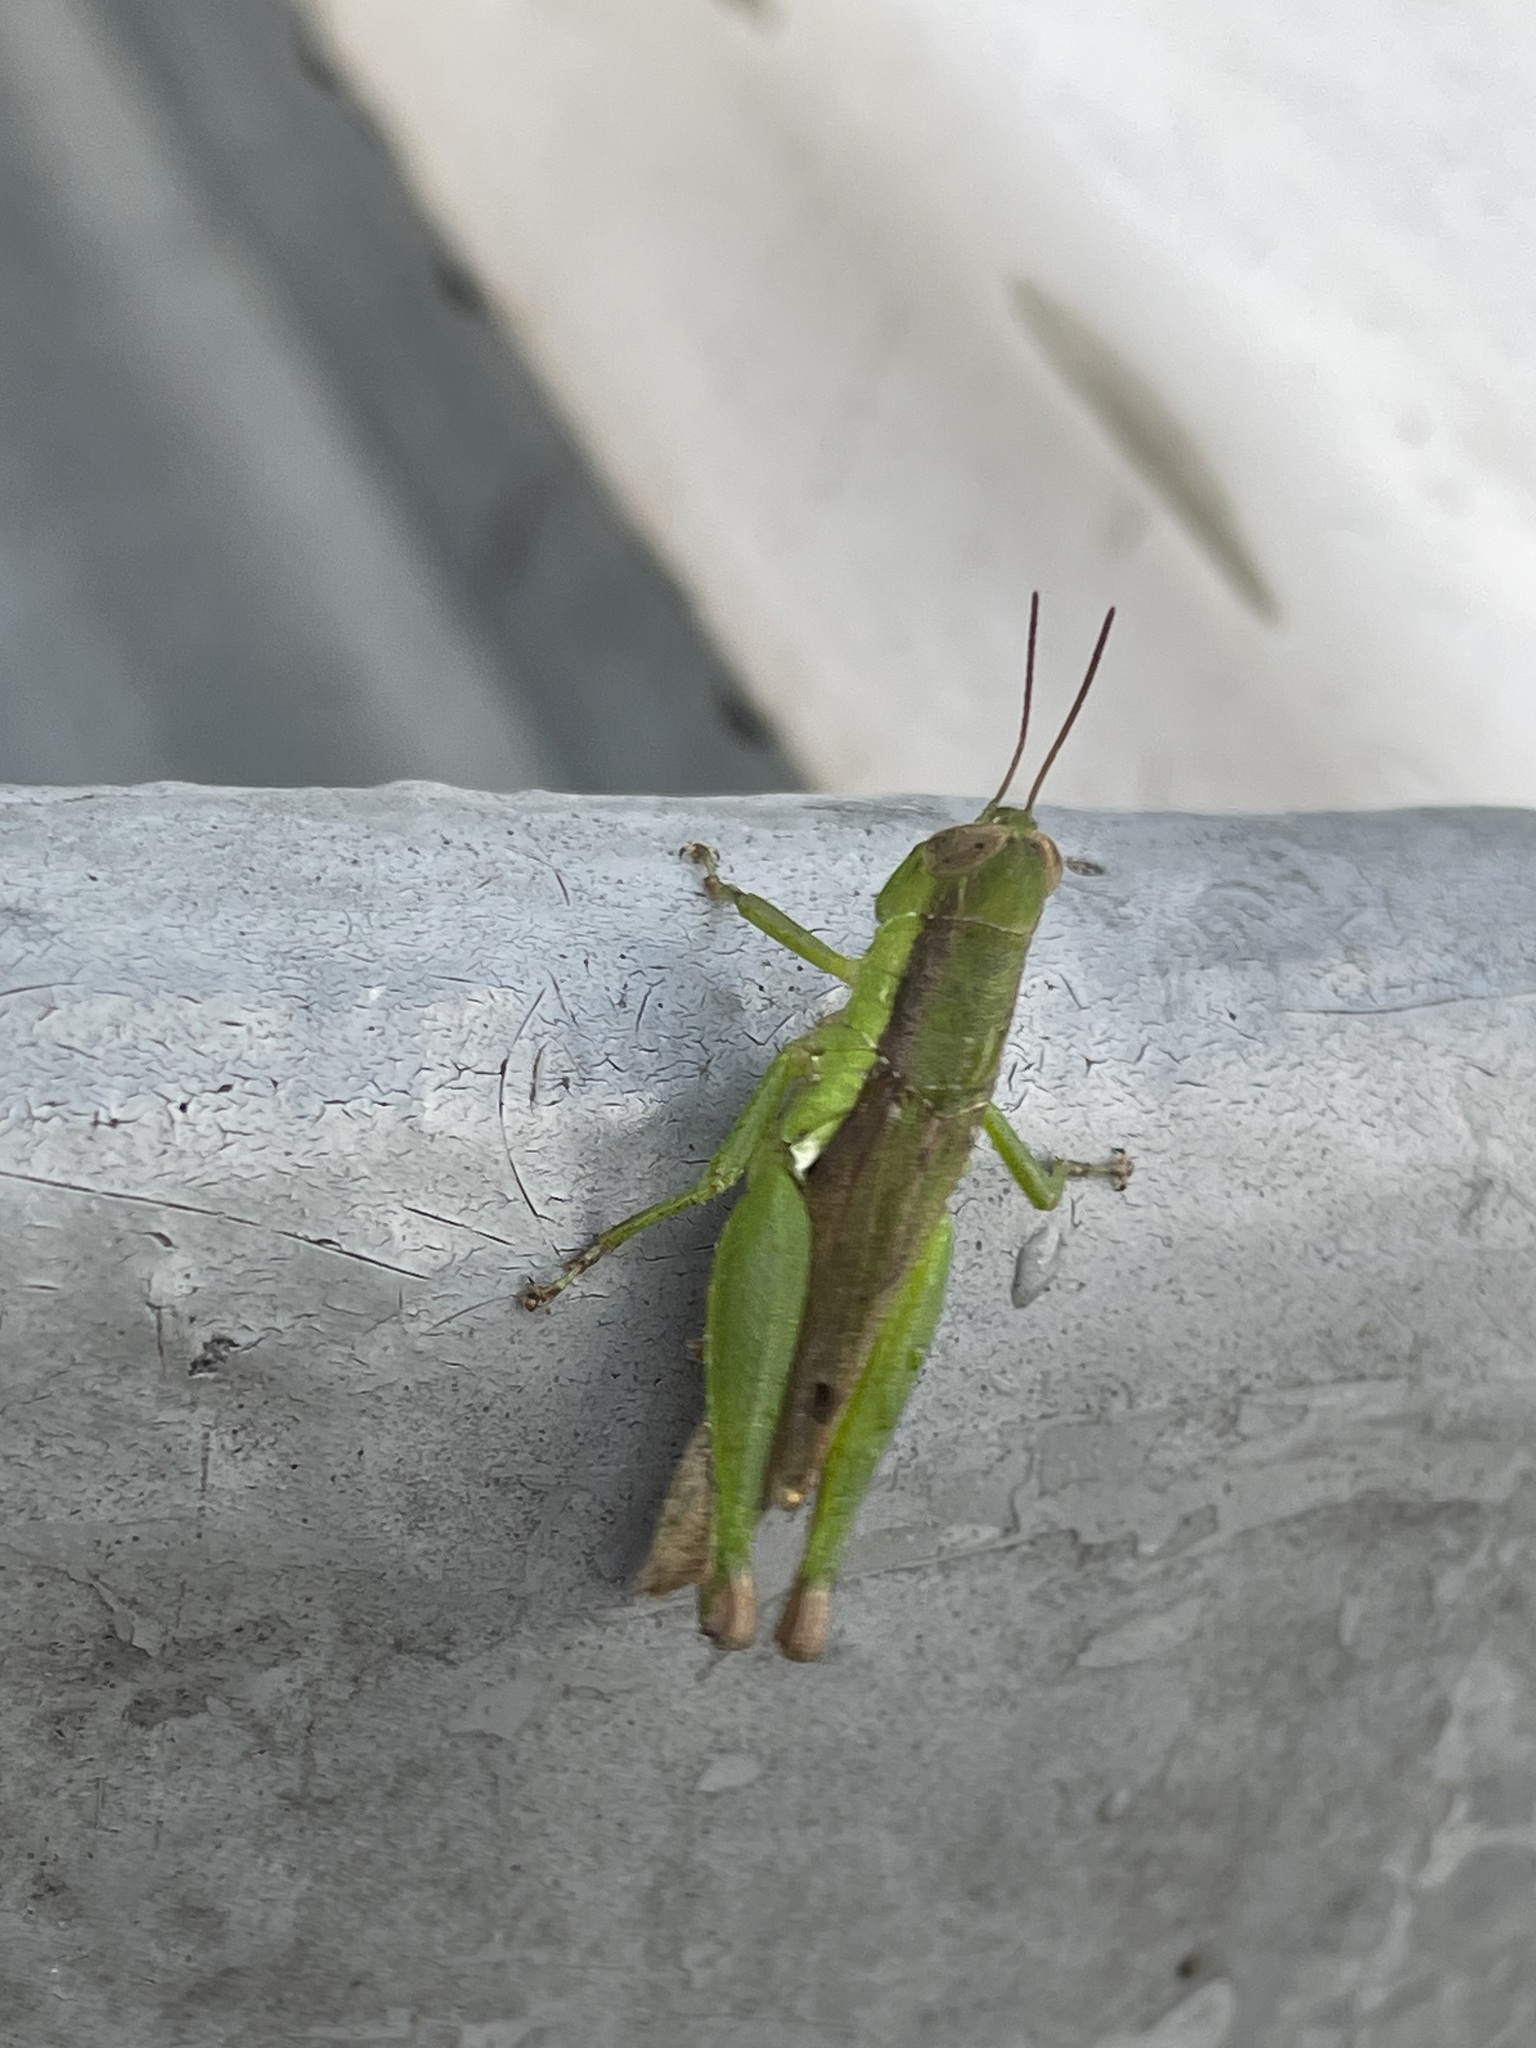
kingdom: Animalia
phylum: Arthropoda
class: Insecta
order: Orthoptera
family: Acrididae
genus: Pseudoxya
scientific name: Pseudoxya diminuta
